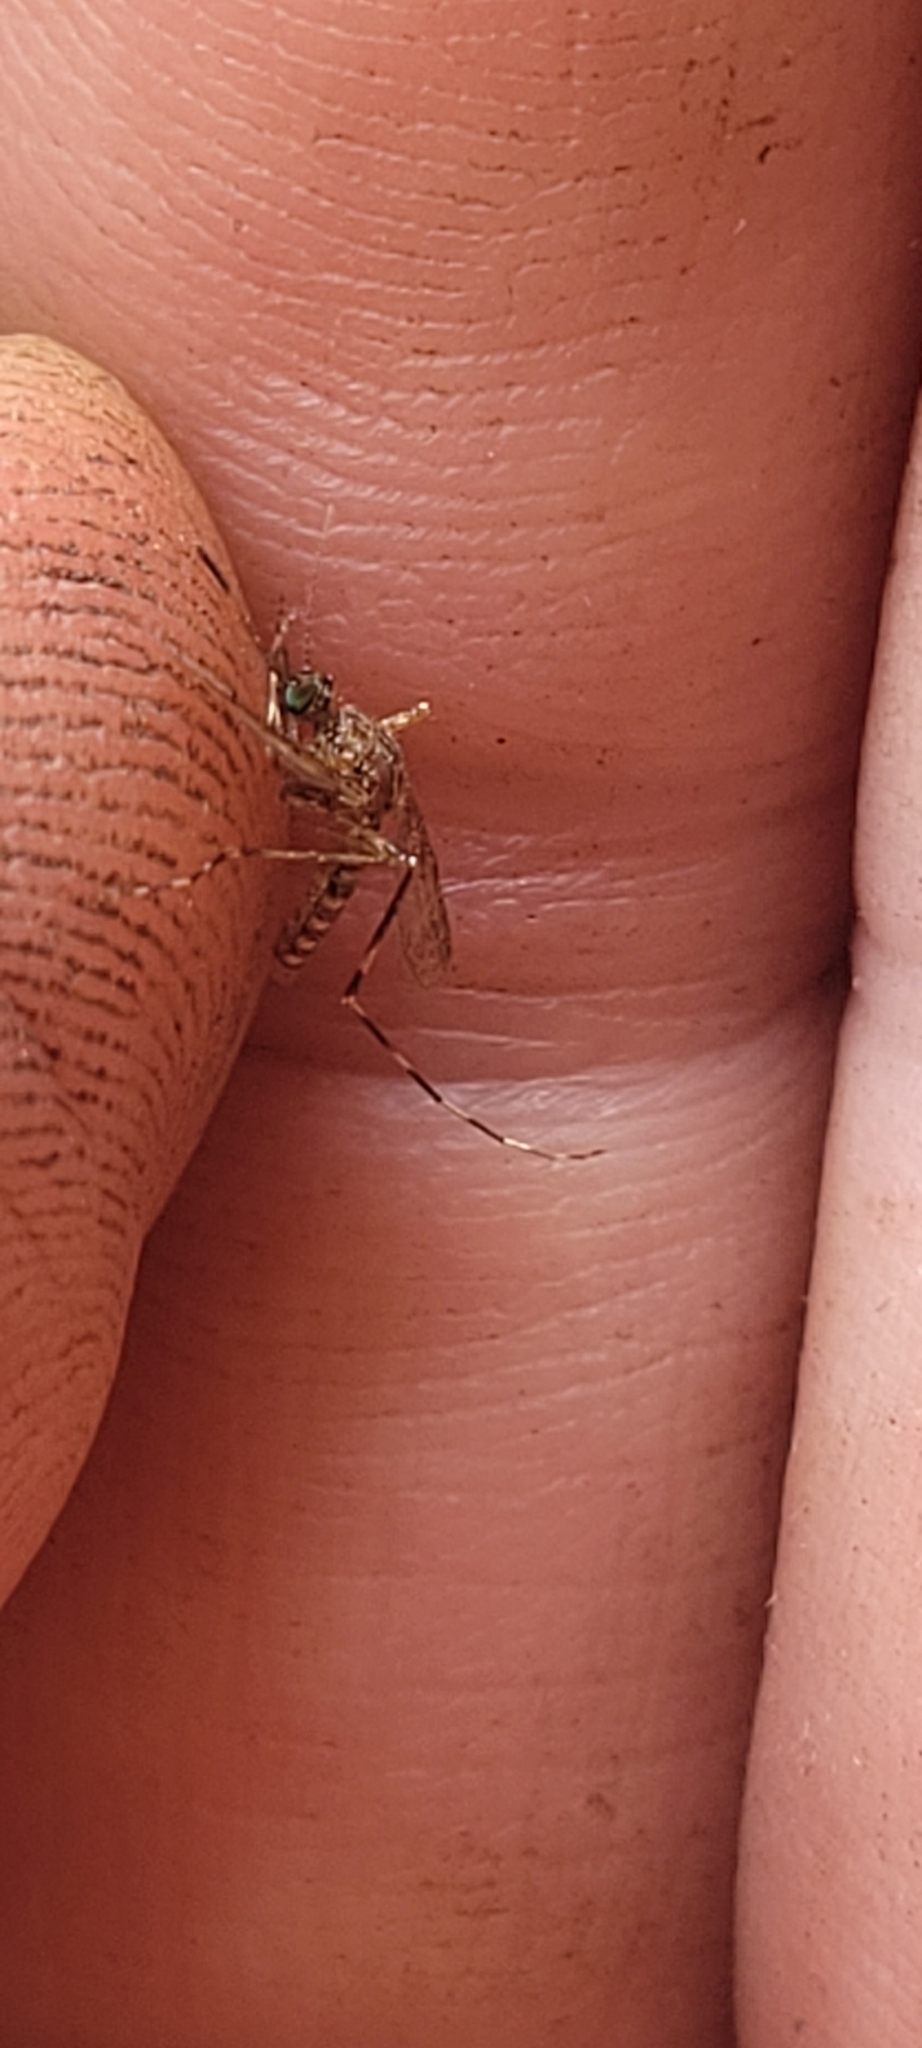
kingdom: Animalia
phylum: Arthropoda
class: Insecta
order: Diptera
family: Culicidae
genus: Coquillettidia
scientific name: Coquillettidia perturbans
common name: Cattail mosquito
